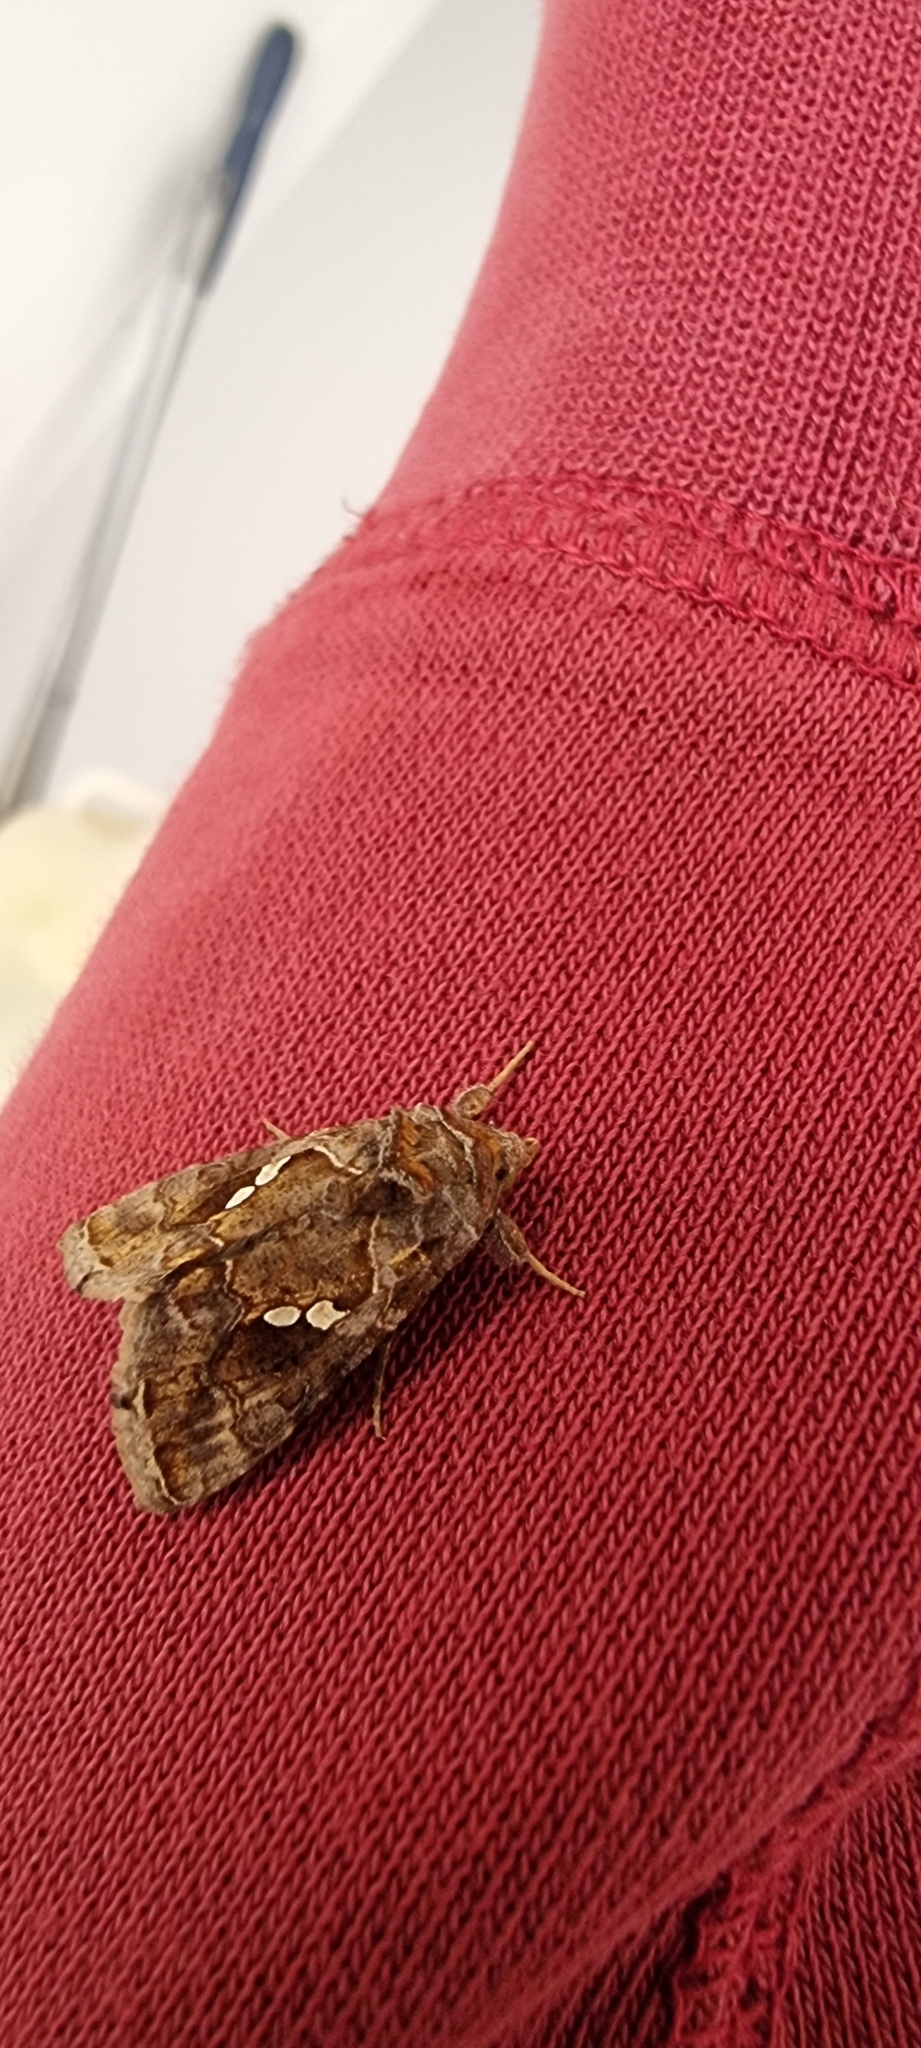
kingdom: Animalia
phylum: Arthropoda
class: Insecta
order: Lepidoptera
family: Noctuidae
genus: Chrysodeixis
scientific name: Chrysodeixis chalcites
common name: Golden twin-spot
